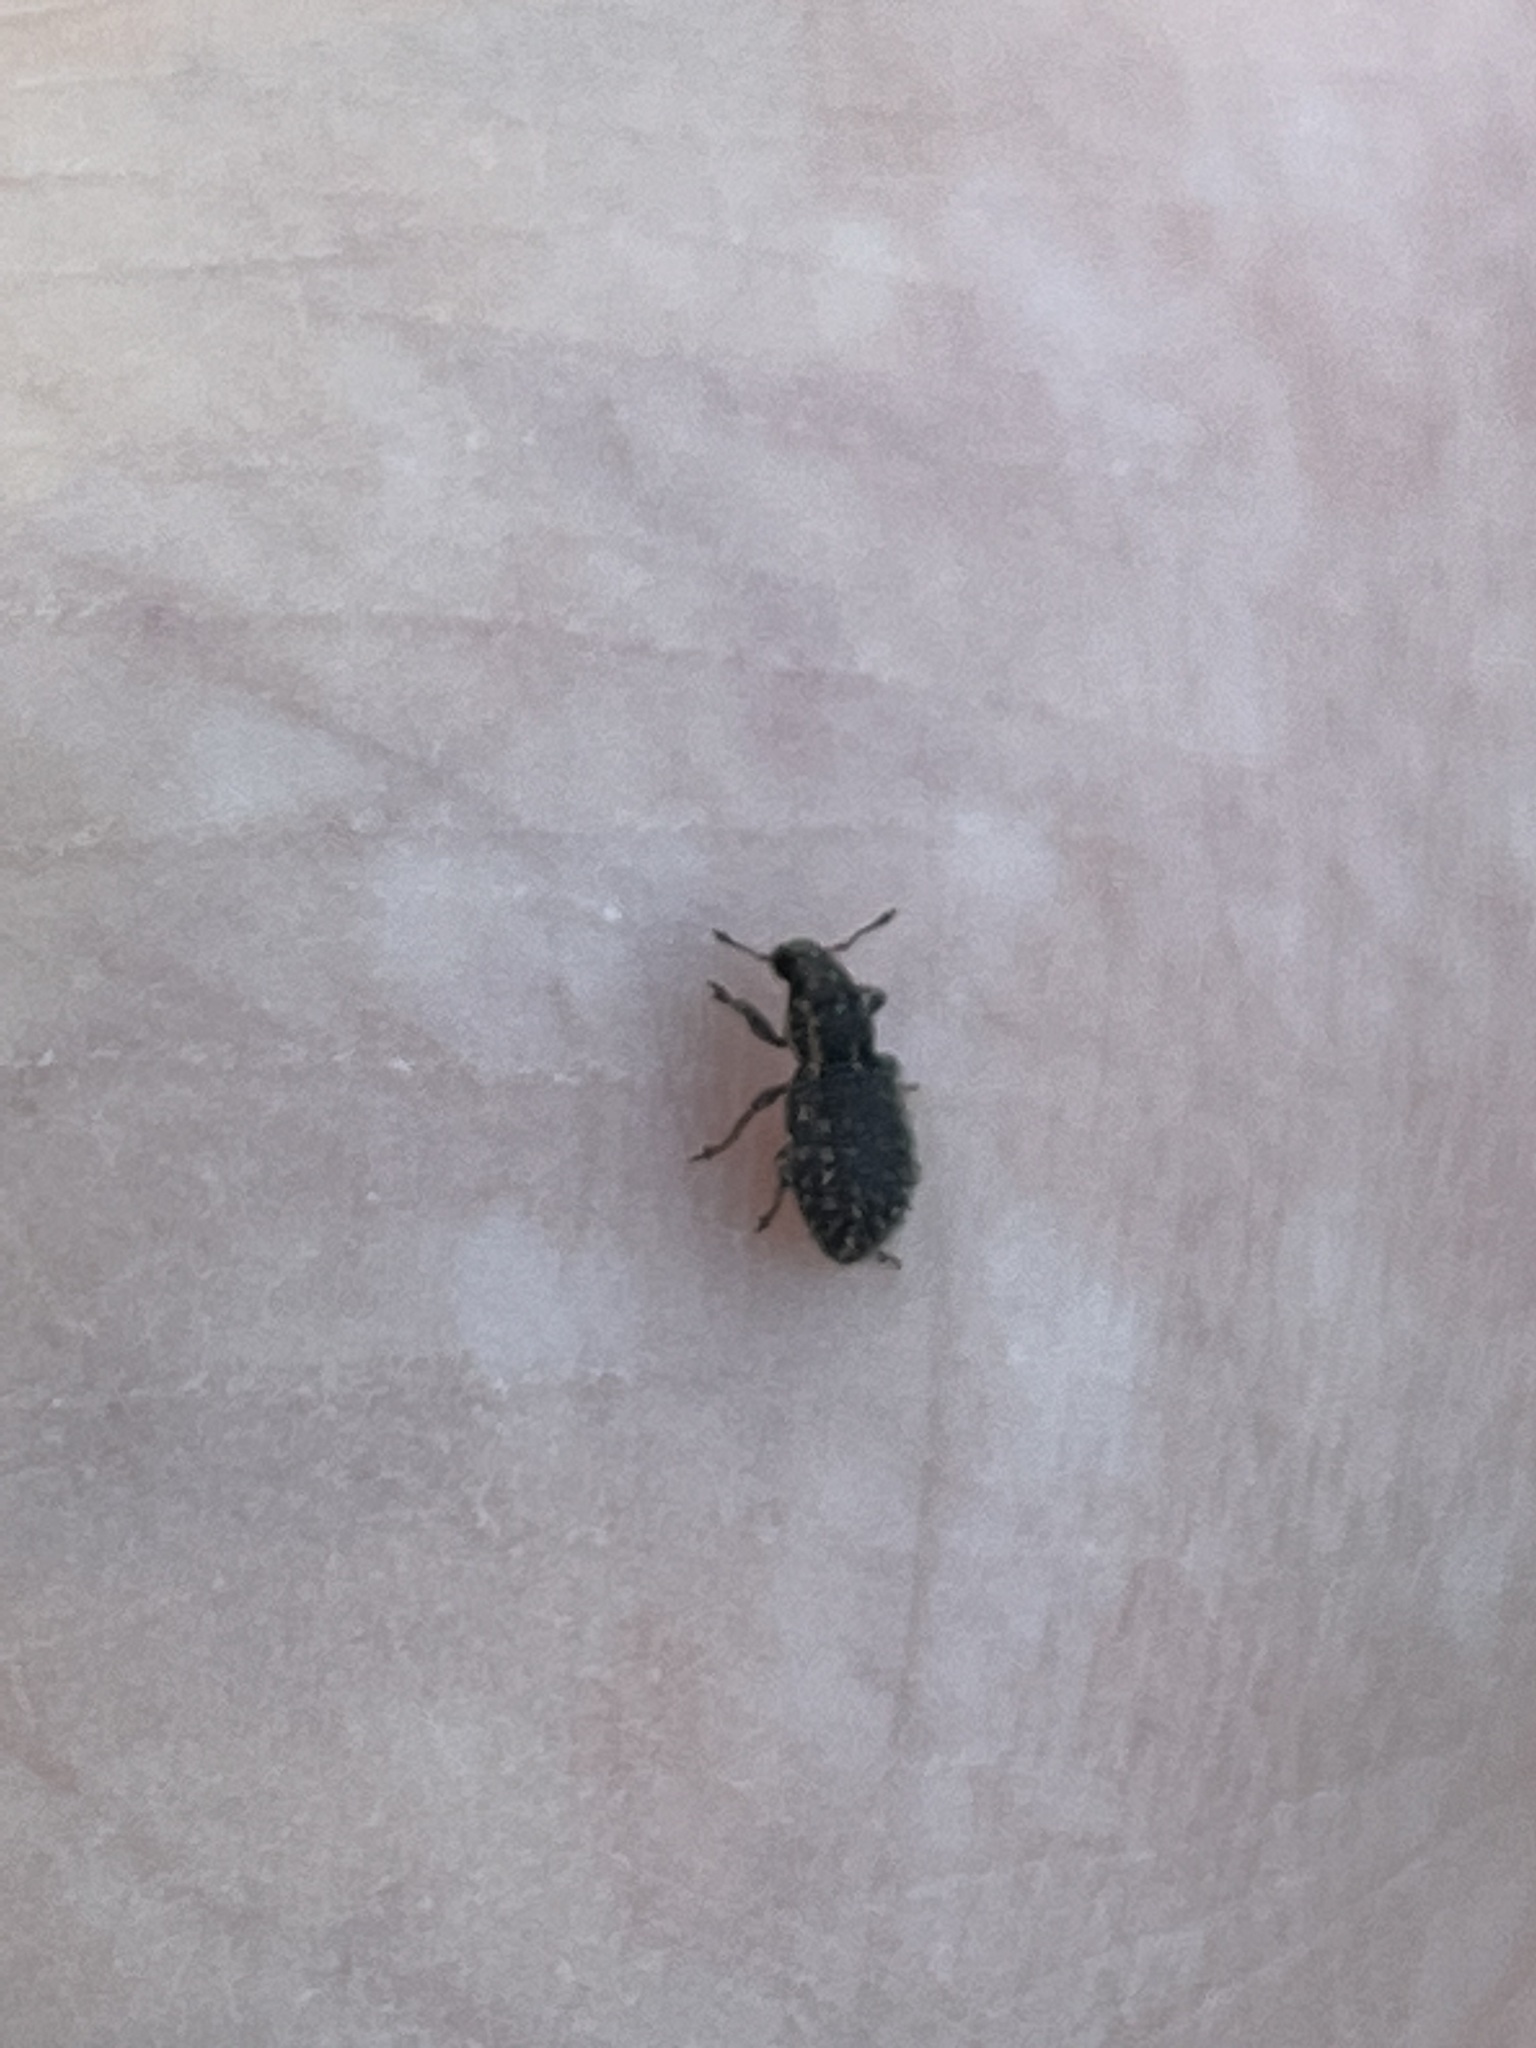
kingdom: Animalia
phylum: Arthropoda
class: Insecta
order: Coleoptera
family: Curculionidae
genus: Sitona
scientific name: Sitona hispidulus
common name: Clover weevil
